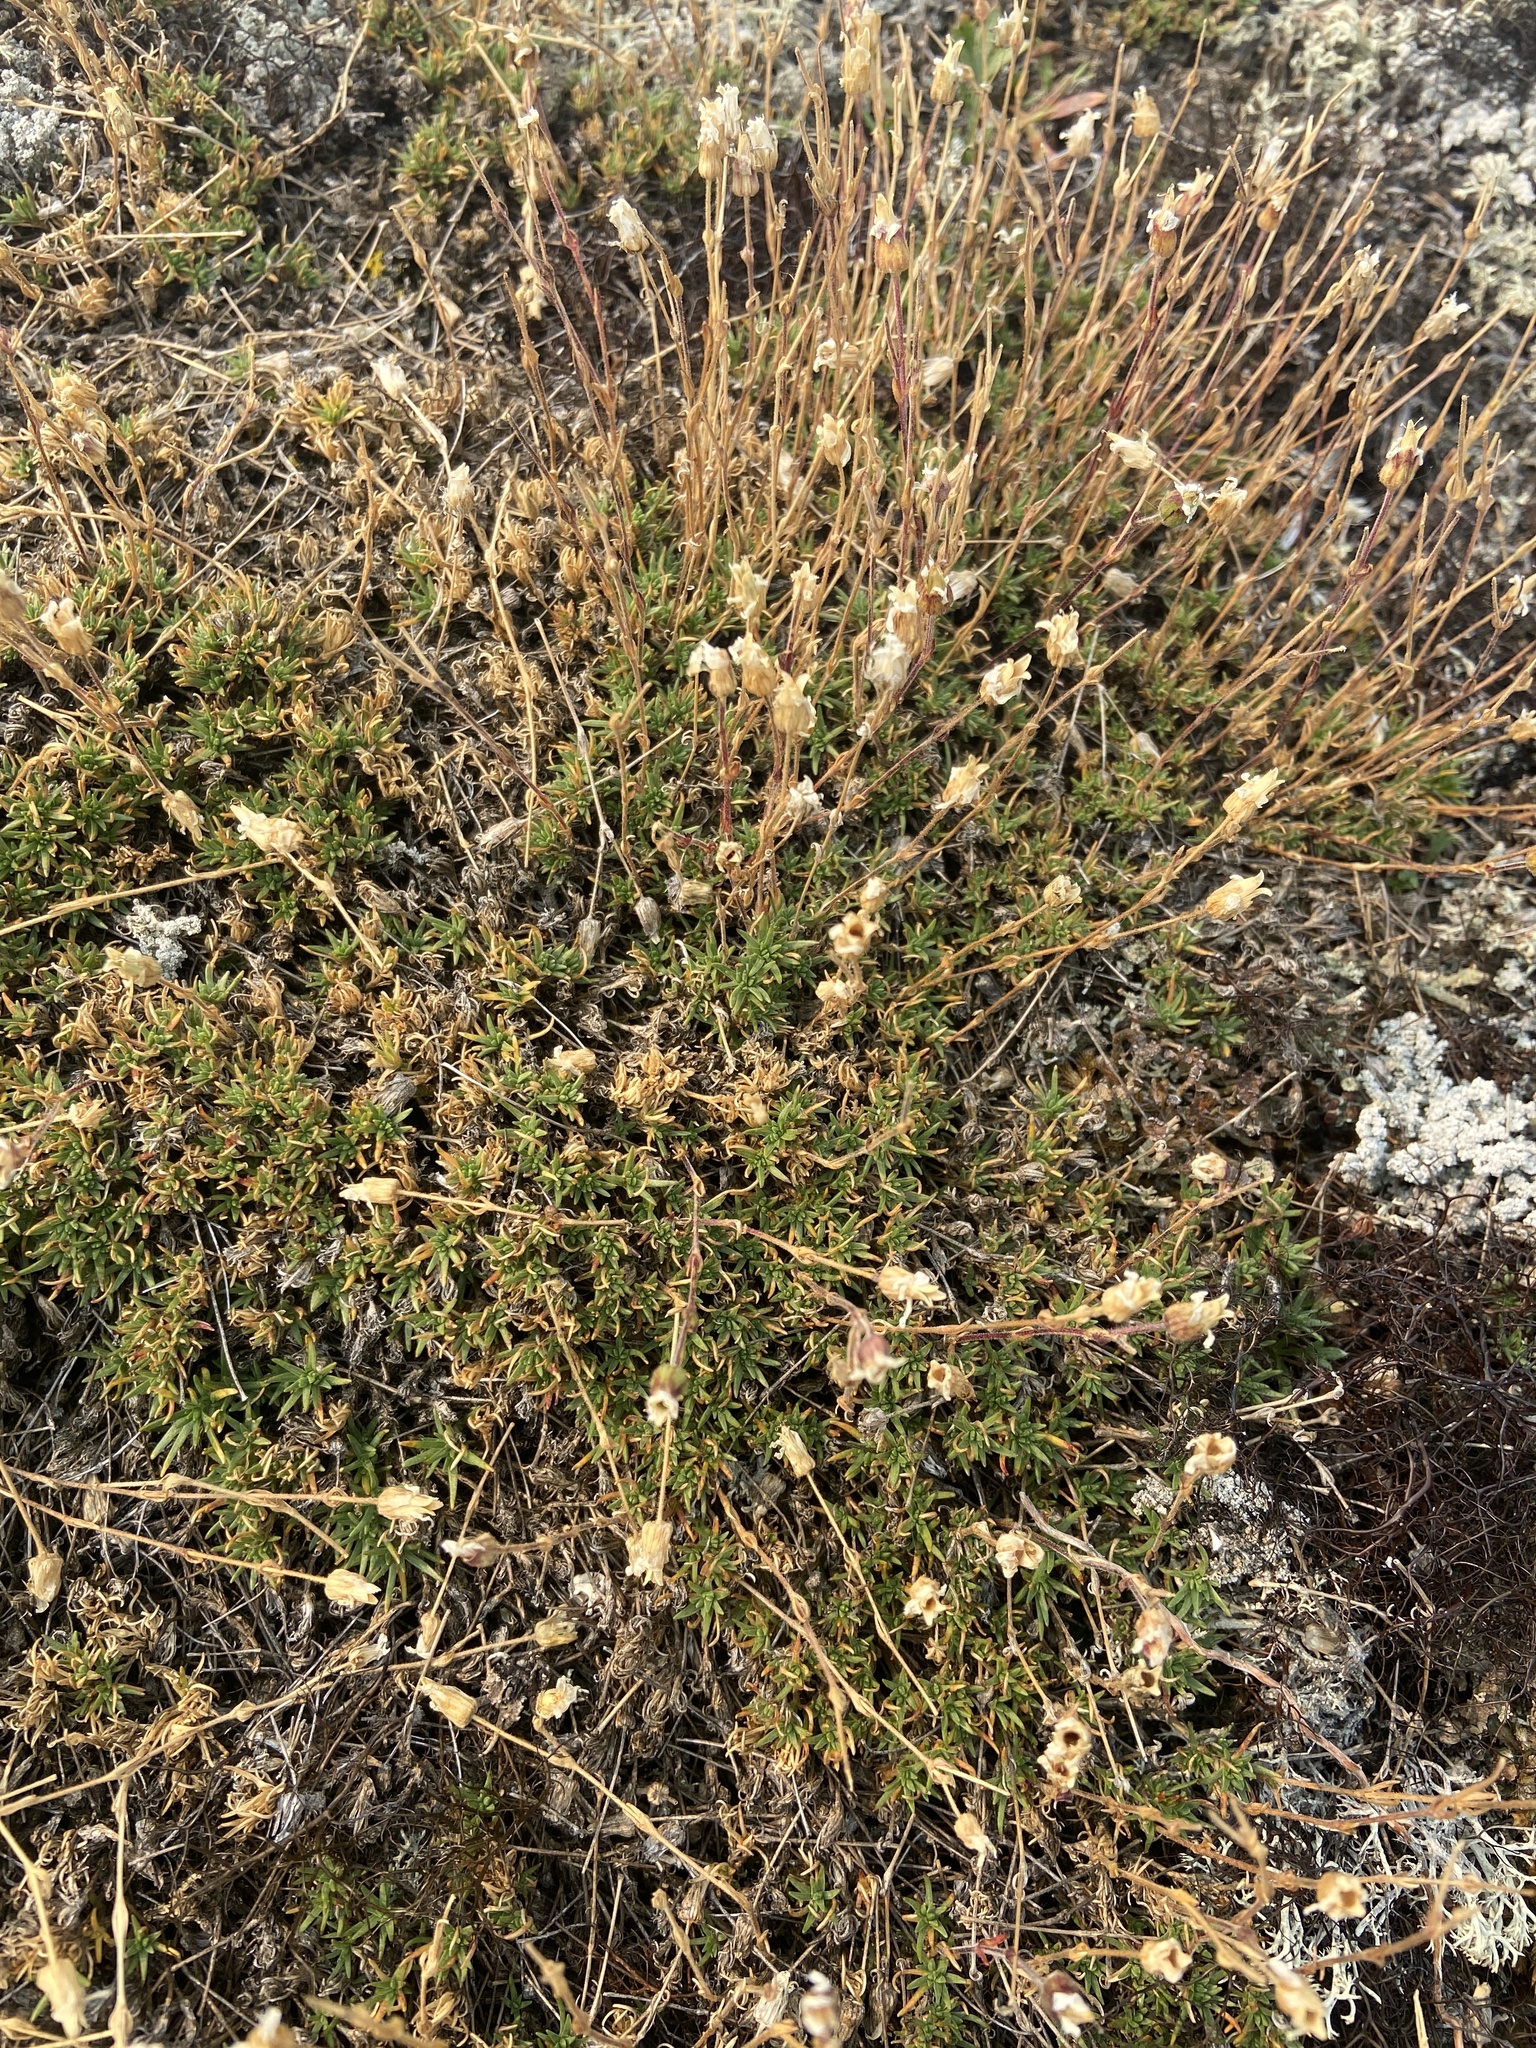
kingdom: Plantae
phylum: Tracheophyta
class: Magnoliopsida
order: Caryophyllales
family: Caryophyllaceae
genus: Cherleria
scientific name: Cherleria arctica
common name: Arctic sandwort
